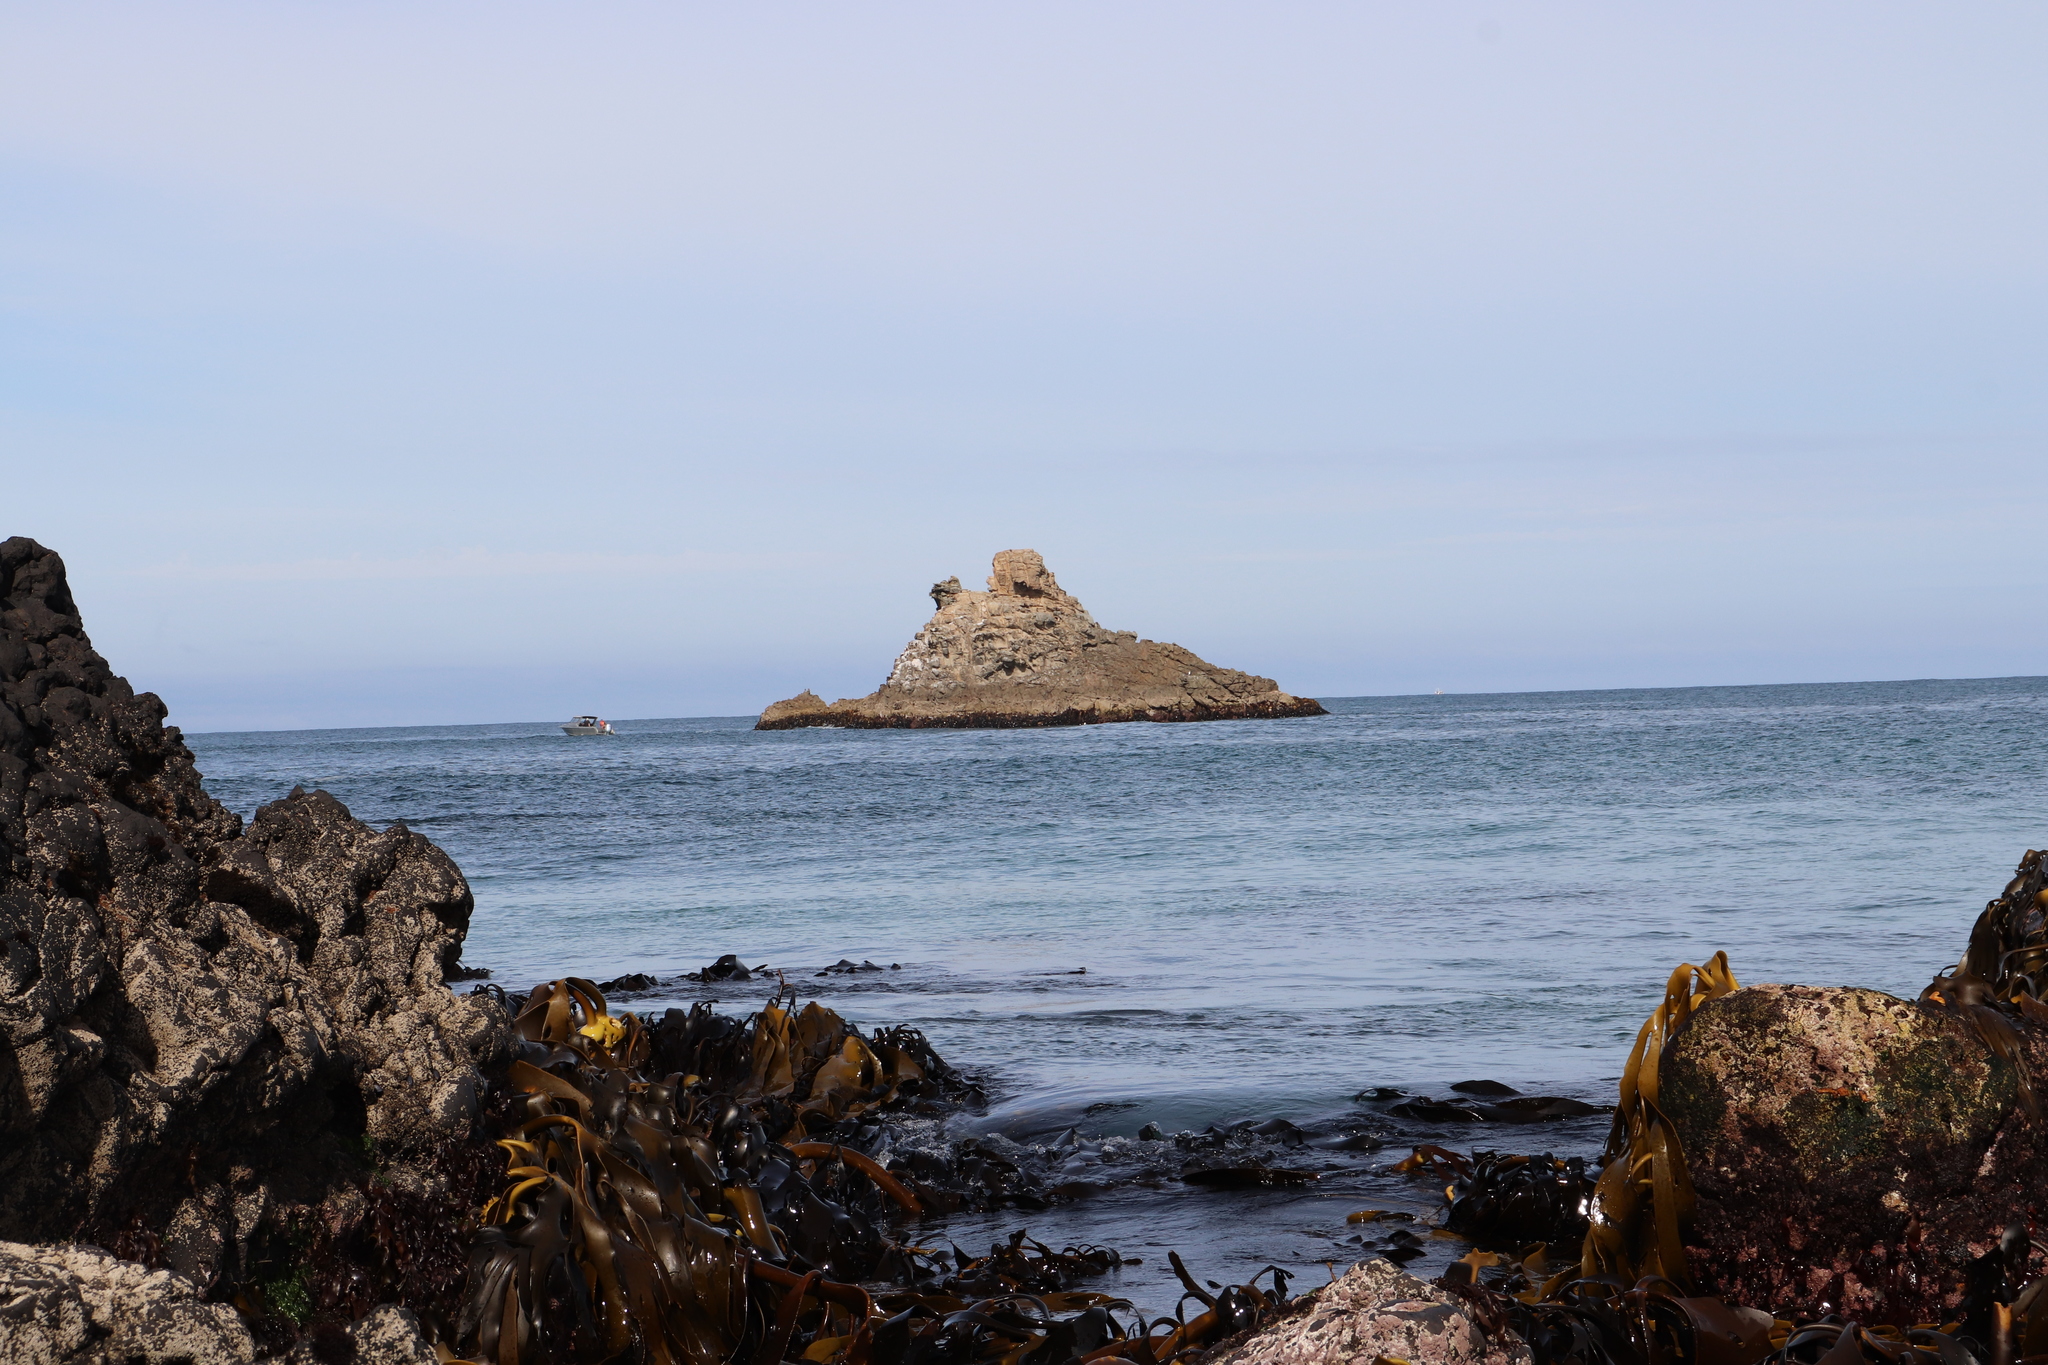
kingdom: Chromista
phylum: Ochrophyta
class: Phaeophyceae
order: Fucales
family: Durvillaeaceae
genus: Durvillaea
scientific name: Durvillaea antarctica
